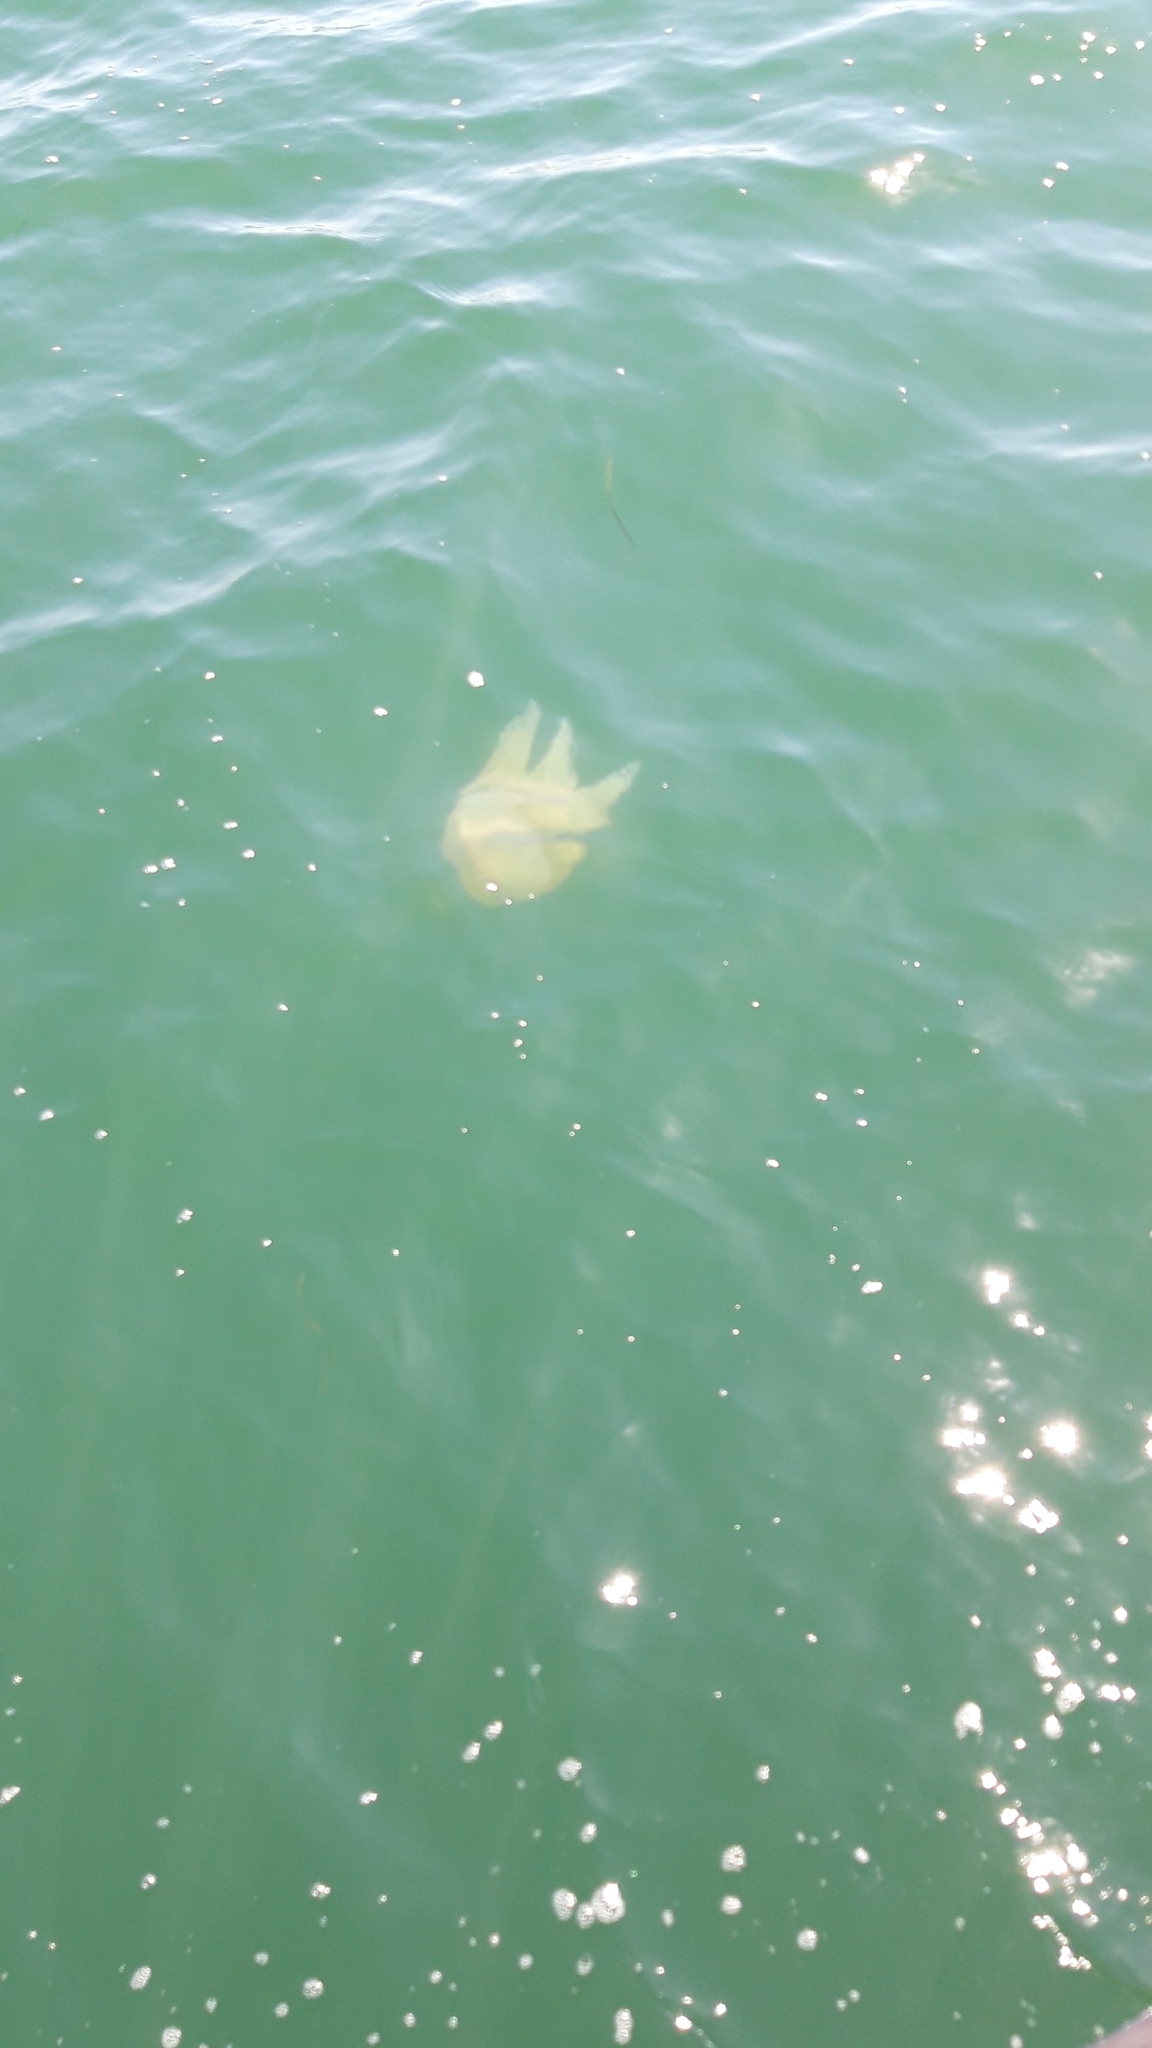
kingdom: Animalia
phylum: Cnidaria
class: Scyphozoa
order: Rhizostomeae
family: Catostylidae
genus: Catostylus
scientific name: Catostylus tagi
